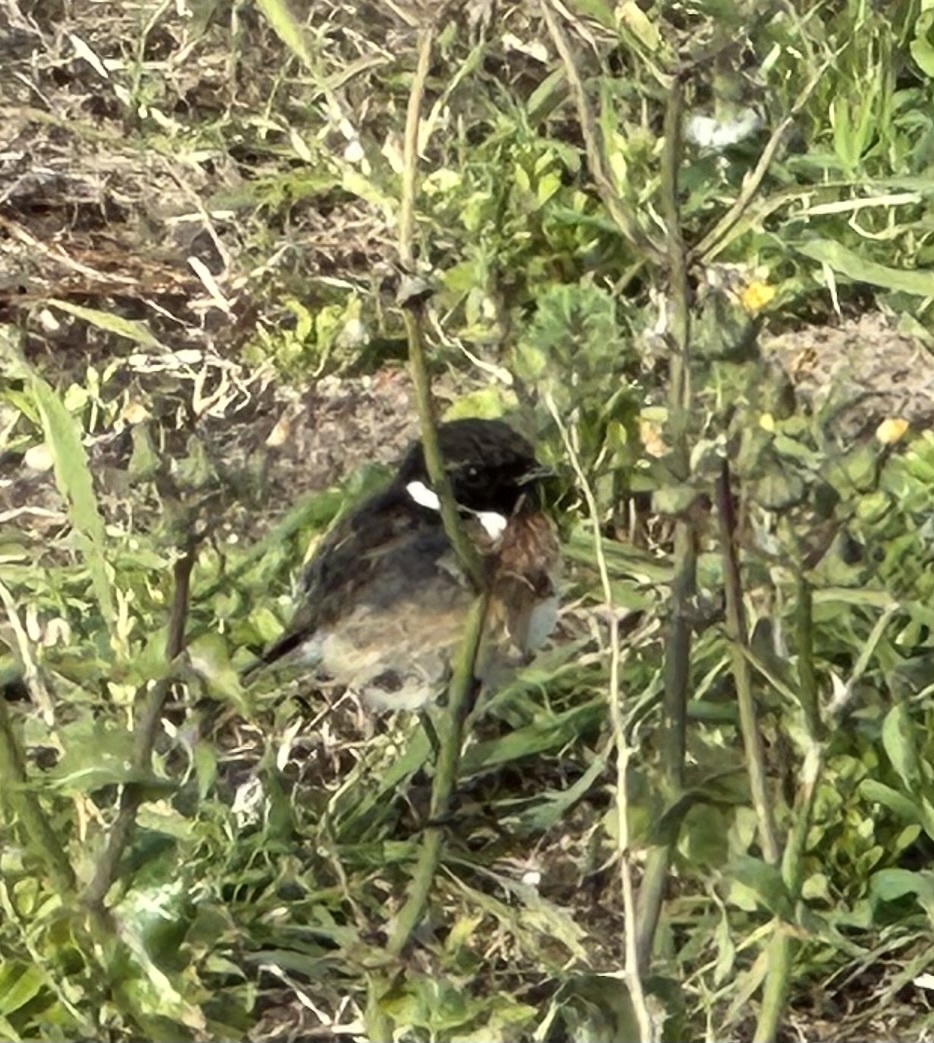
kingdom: Animalia
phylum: Chordata
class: Aves
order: Passeriformes
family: Muscicapidae
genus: Saxicola
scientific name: Saxicola rubicola
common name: European stonechat
